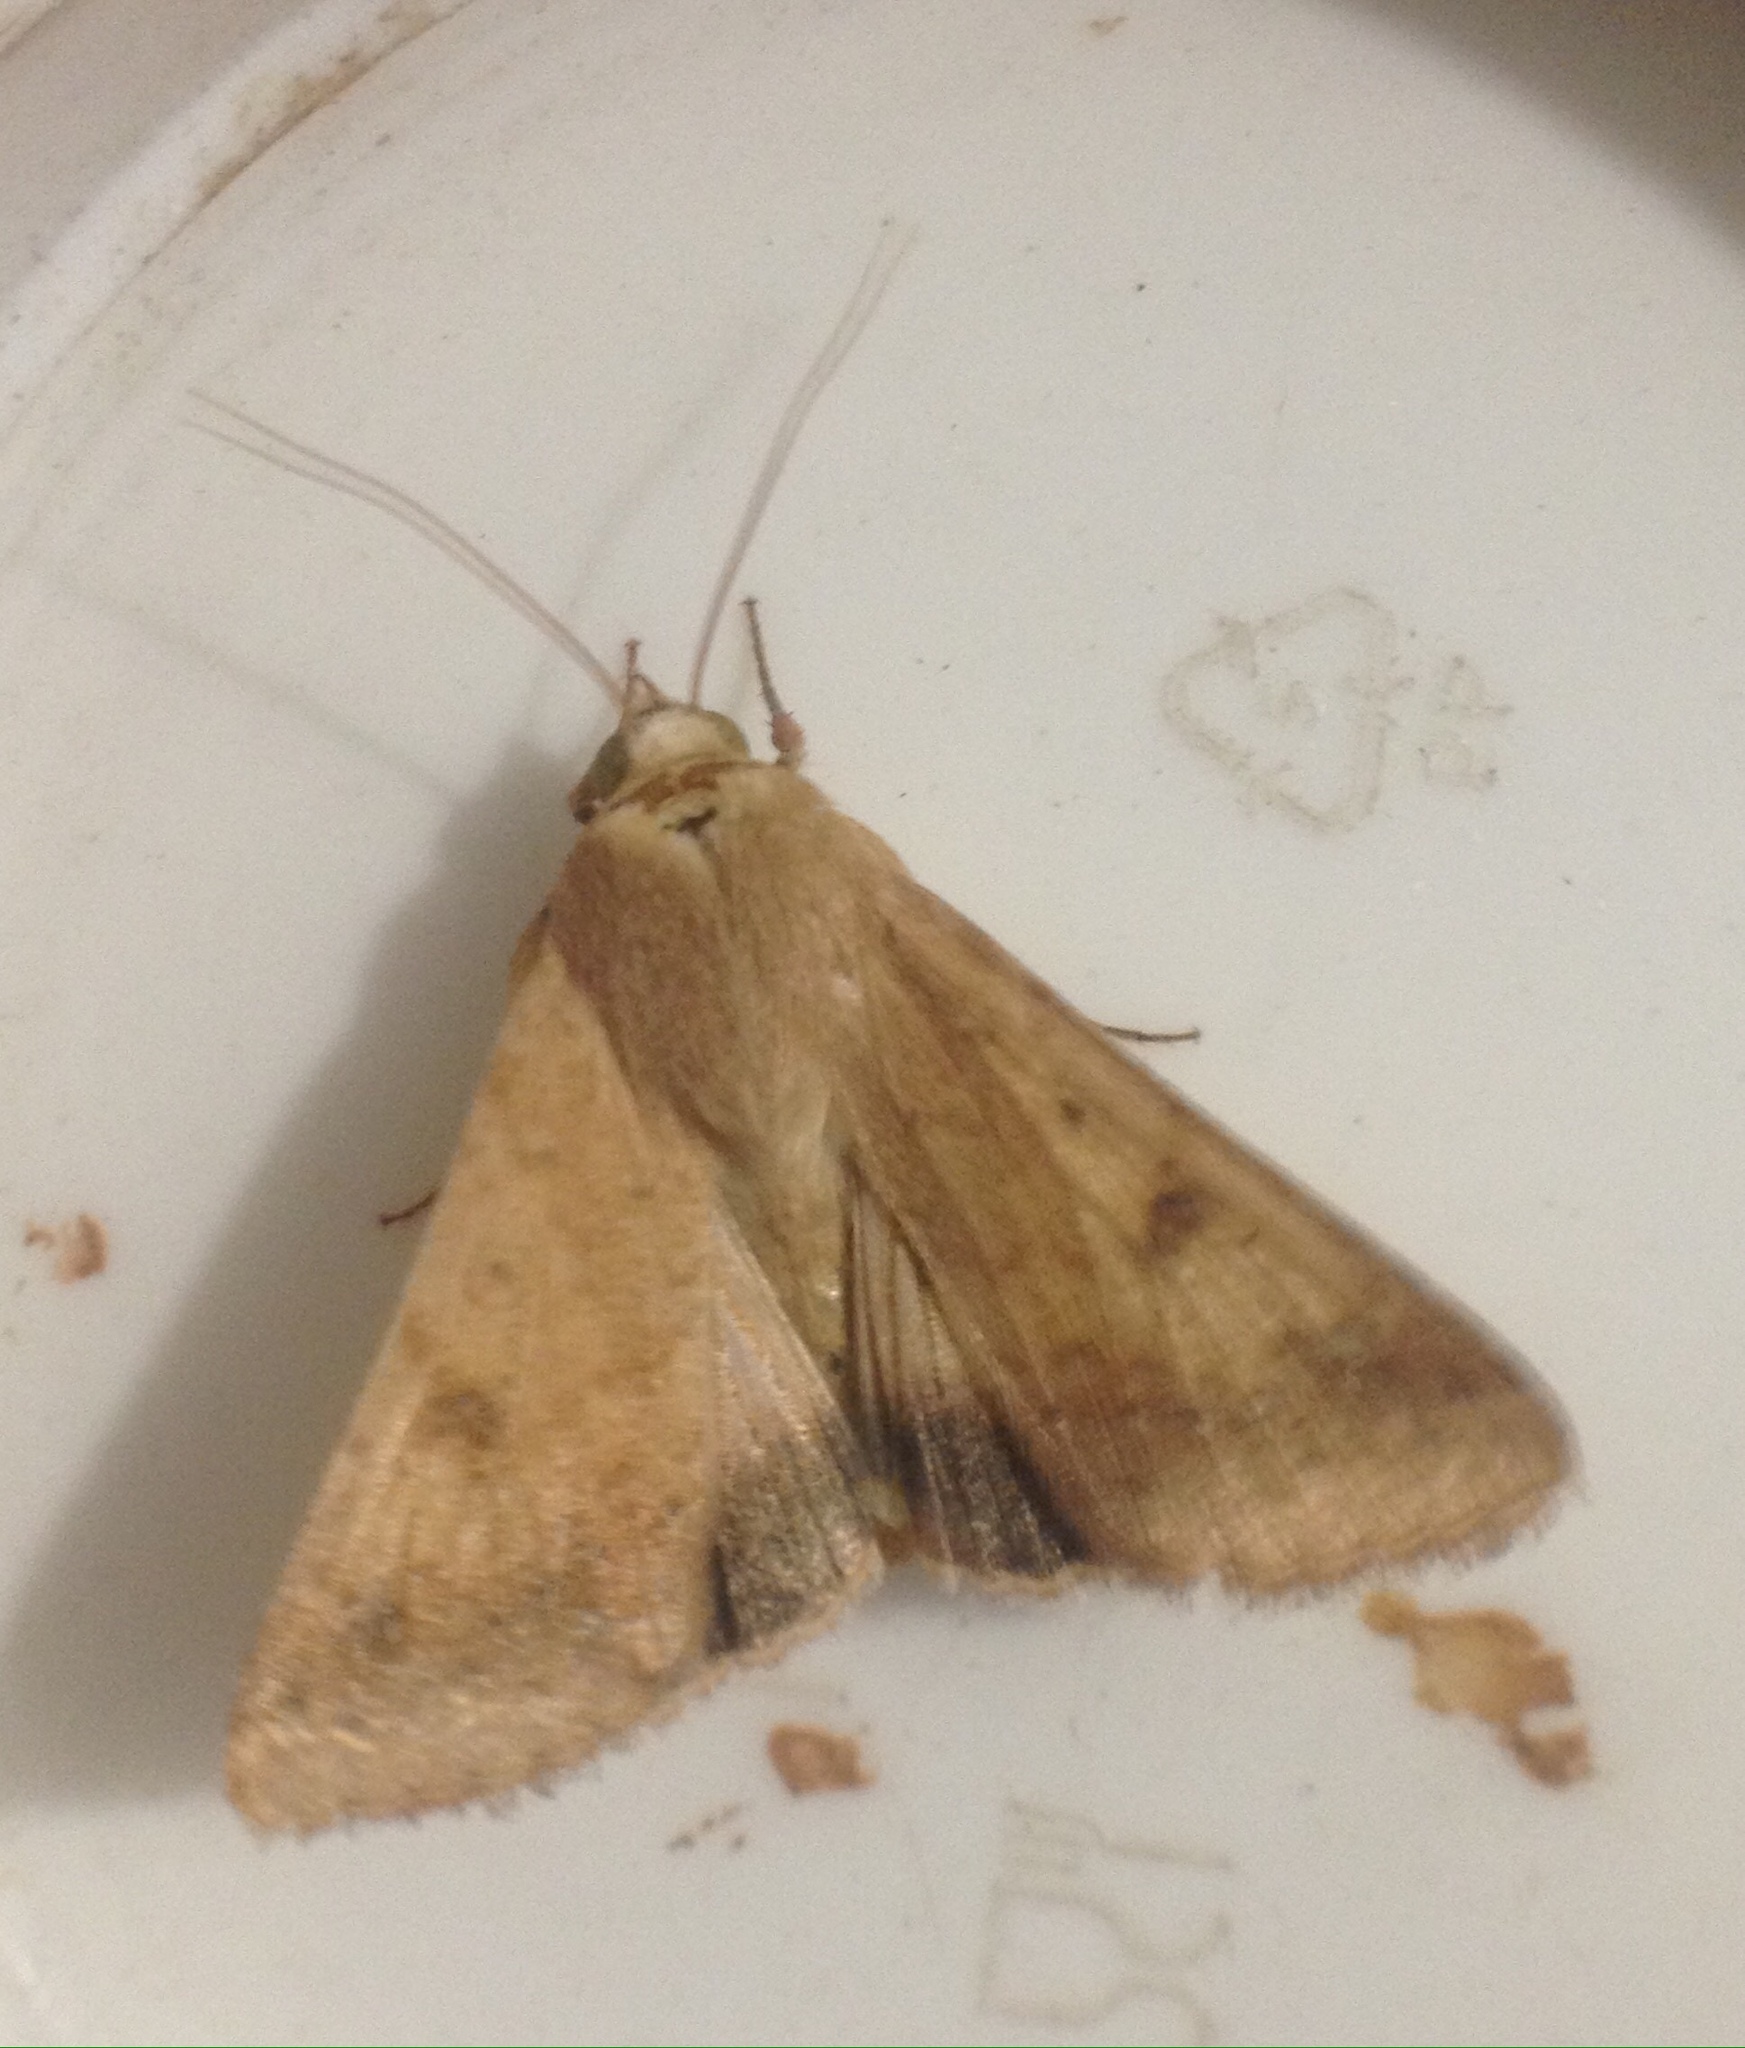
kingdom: Animalia
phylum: Arthropoda
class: Insecta
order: Lepidoptera
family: Noctuidae
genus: Helicoverpa
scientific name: Helicoverpa armigera
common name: Cotton bollworm
